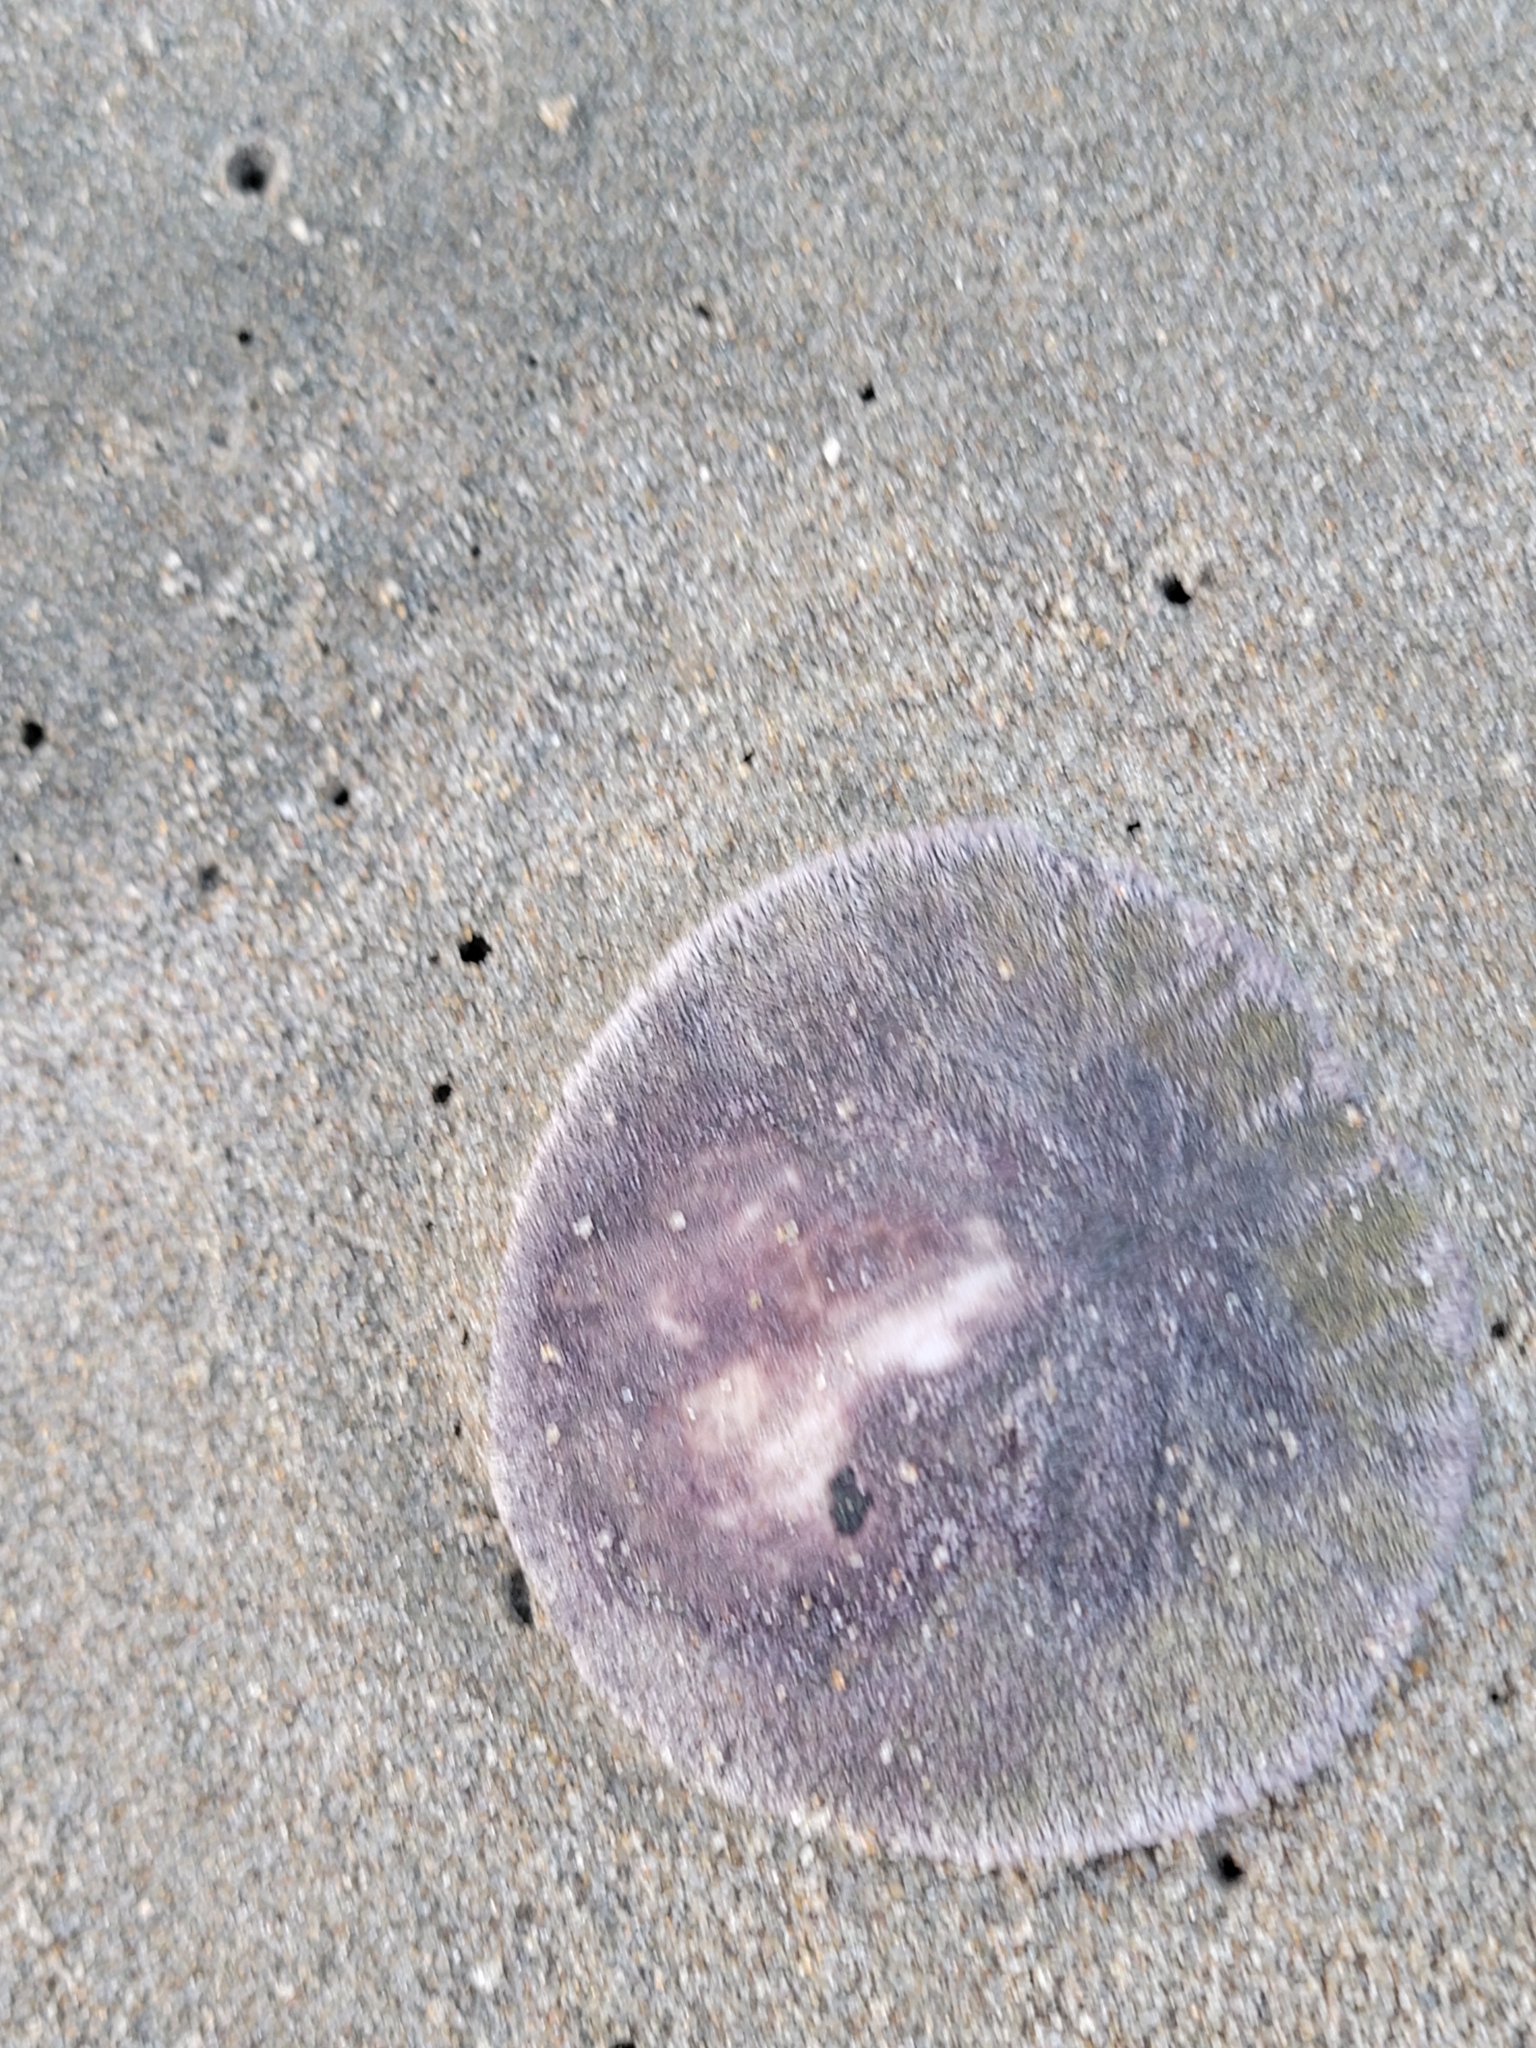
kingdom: Animalia
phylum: Echinodermata
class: Echinoidea
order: Echinolampadacea
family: Dendrasteridae
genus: Dendraster
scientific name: Dendraster excentricus
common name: Eccentric sand dollar sea urchin
